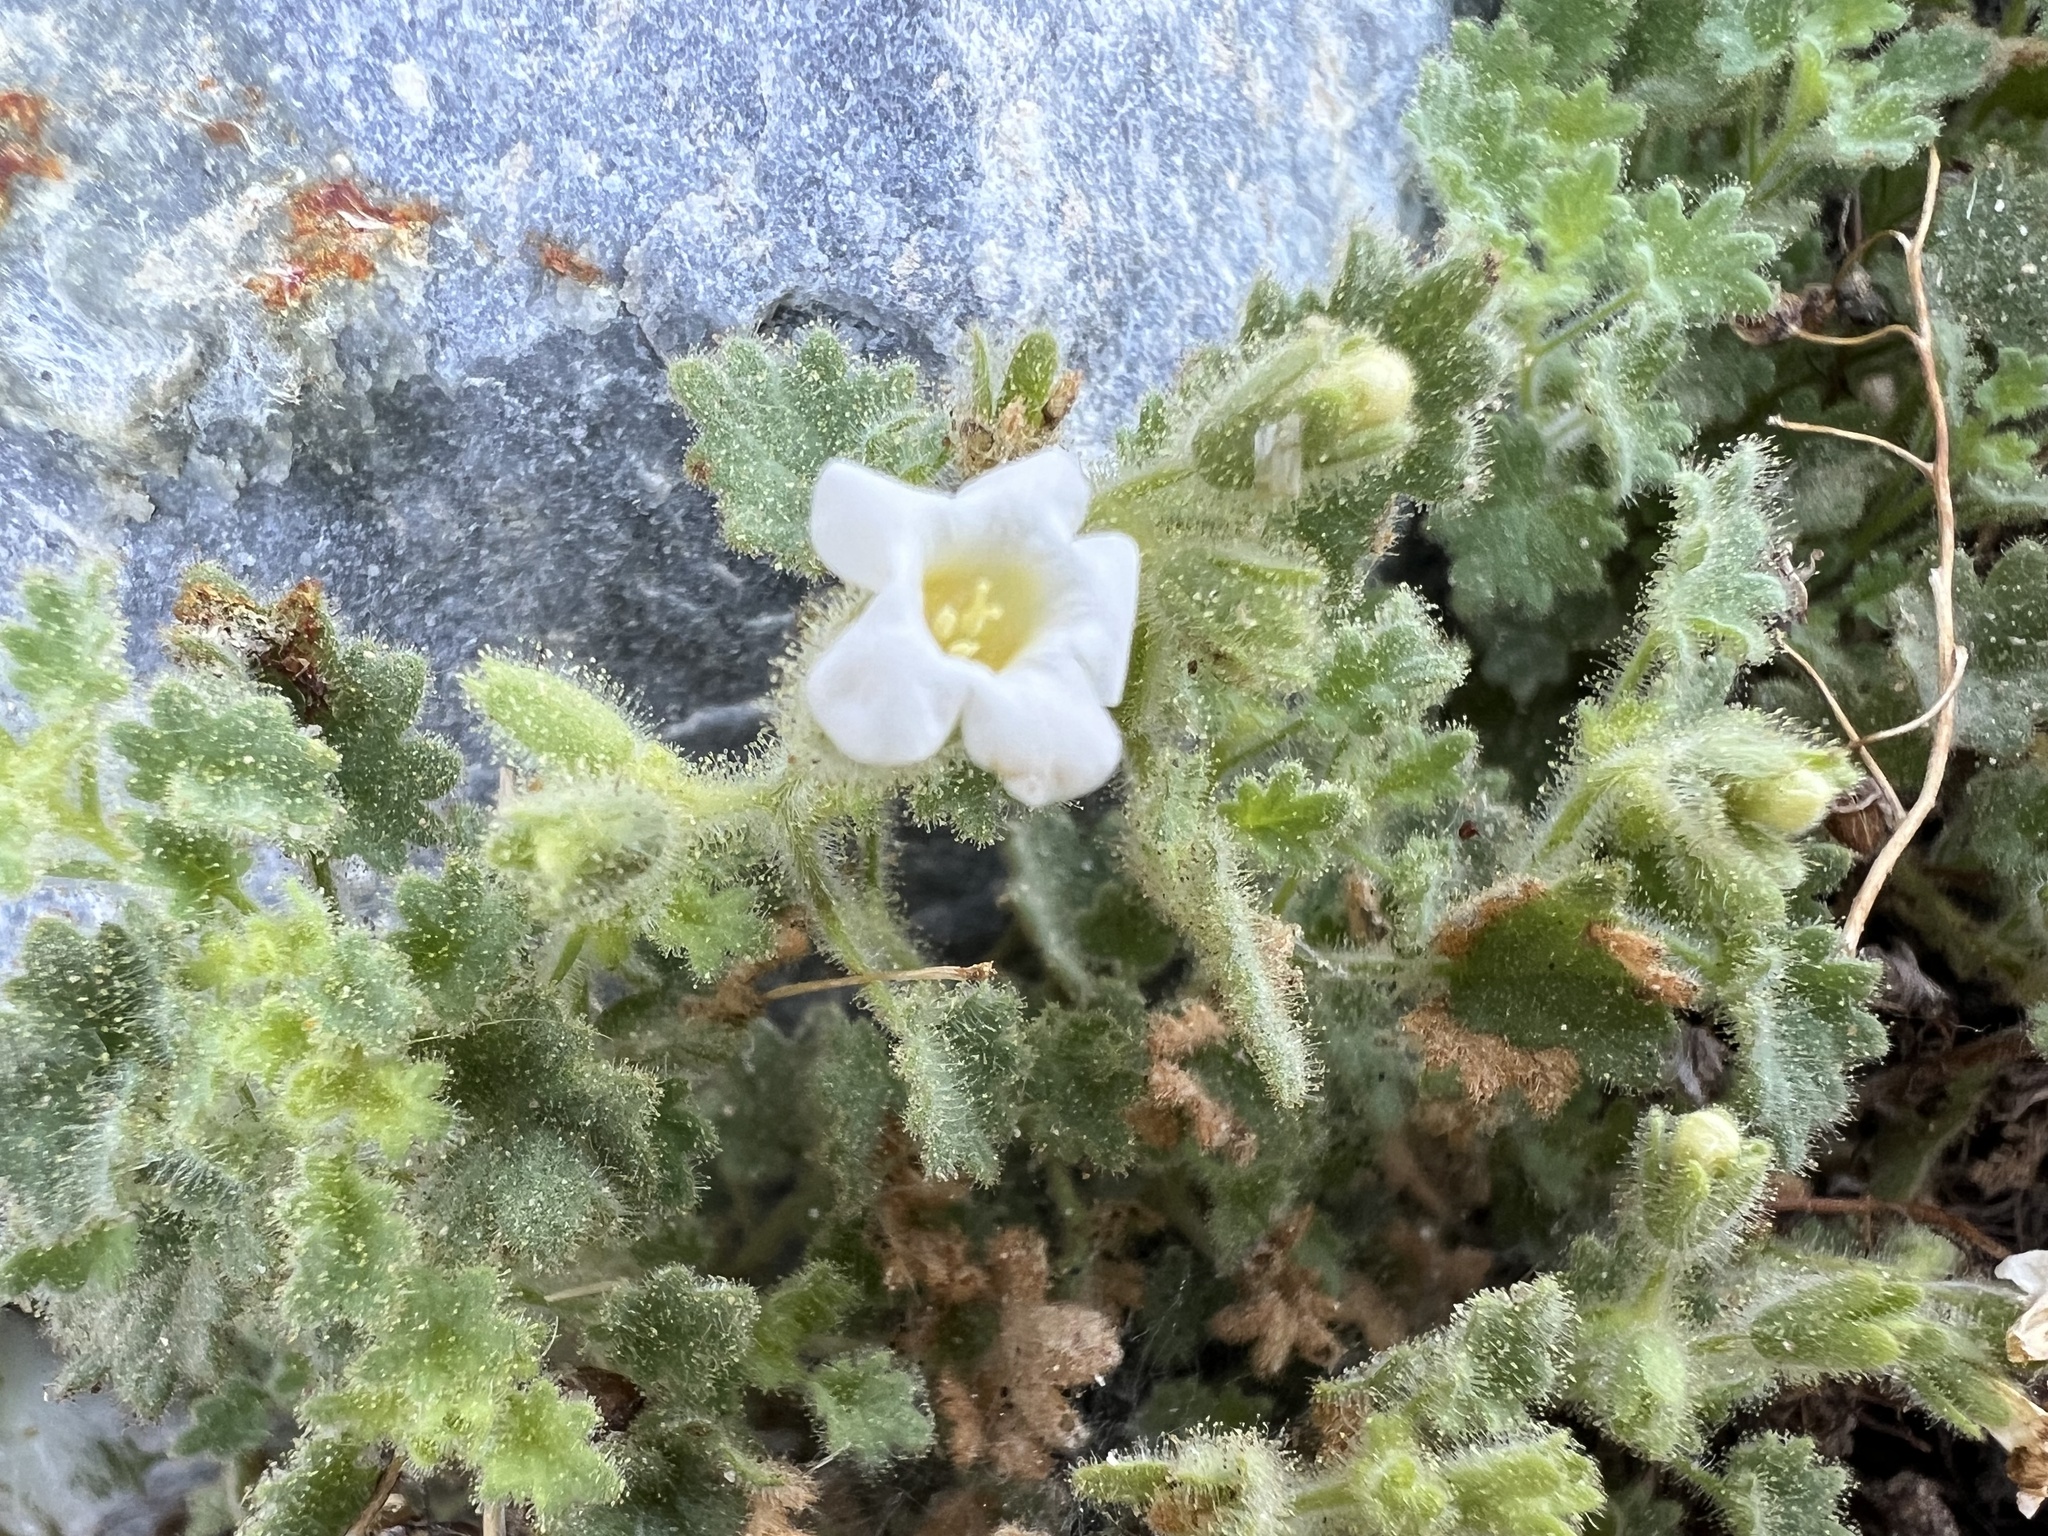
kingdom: Plantae
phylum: Tracheophyta
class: Magnoliopsida
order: Boraginales
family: Hydrophyllaceae
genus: Phacelia
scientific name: Phacelia perityloides
